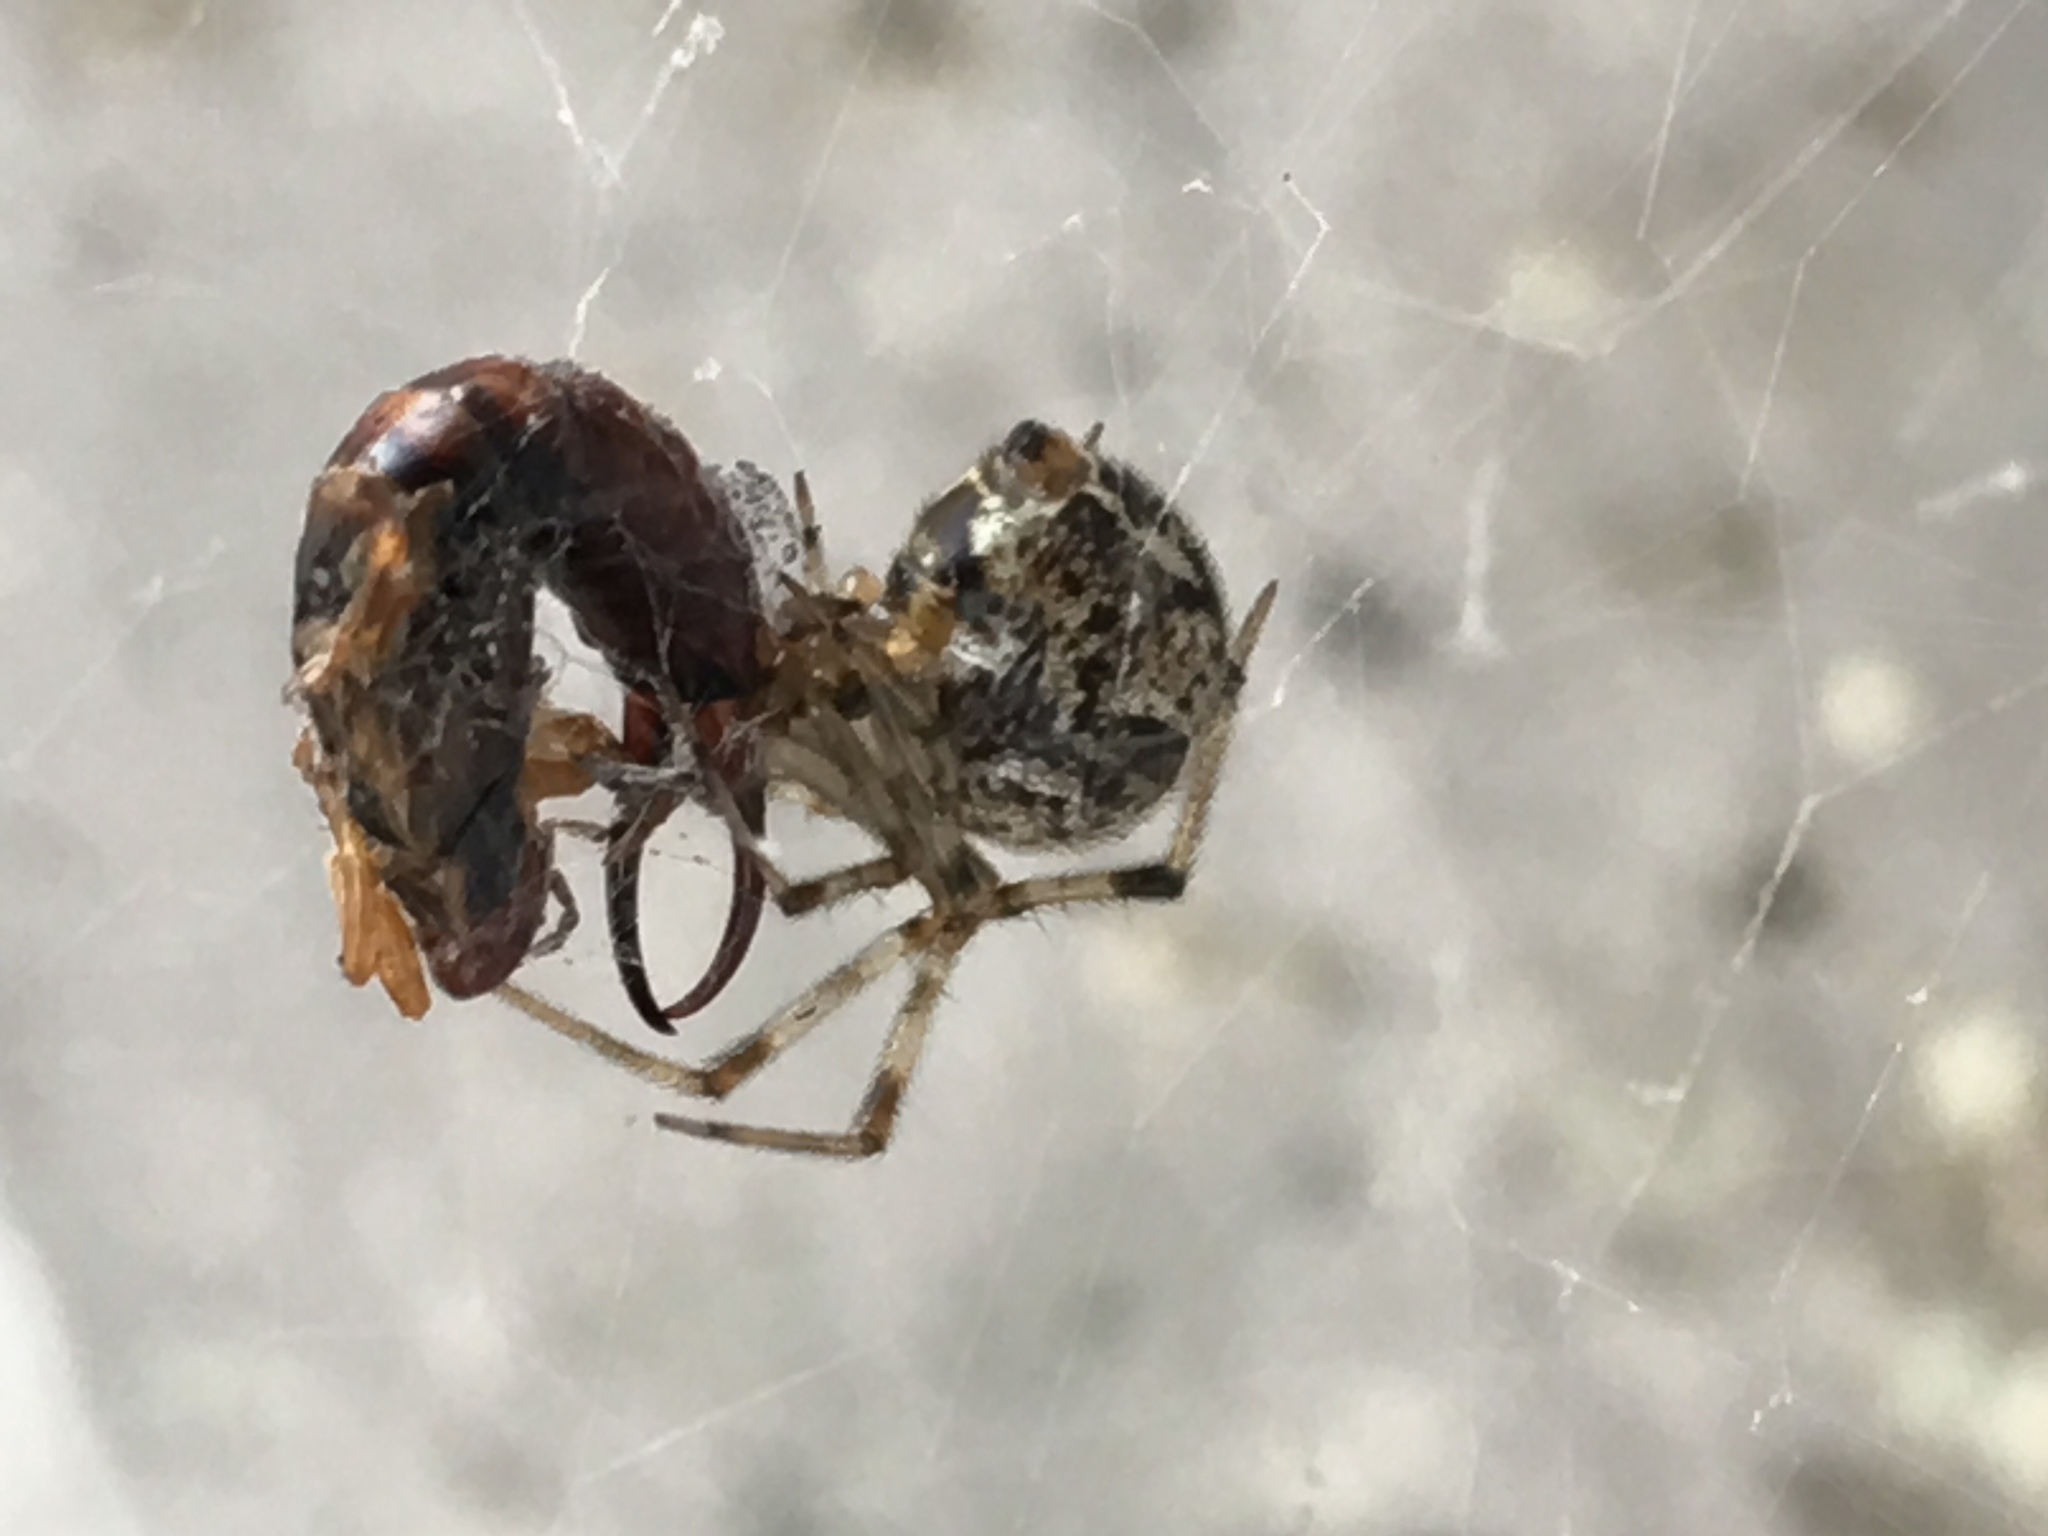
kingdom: Animalia
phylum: Arthropoda
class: Insecta
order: Dermaptera
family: Forficulidae
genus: Forficula
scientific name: Forficula
